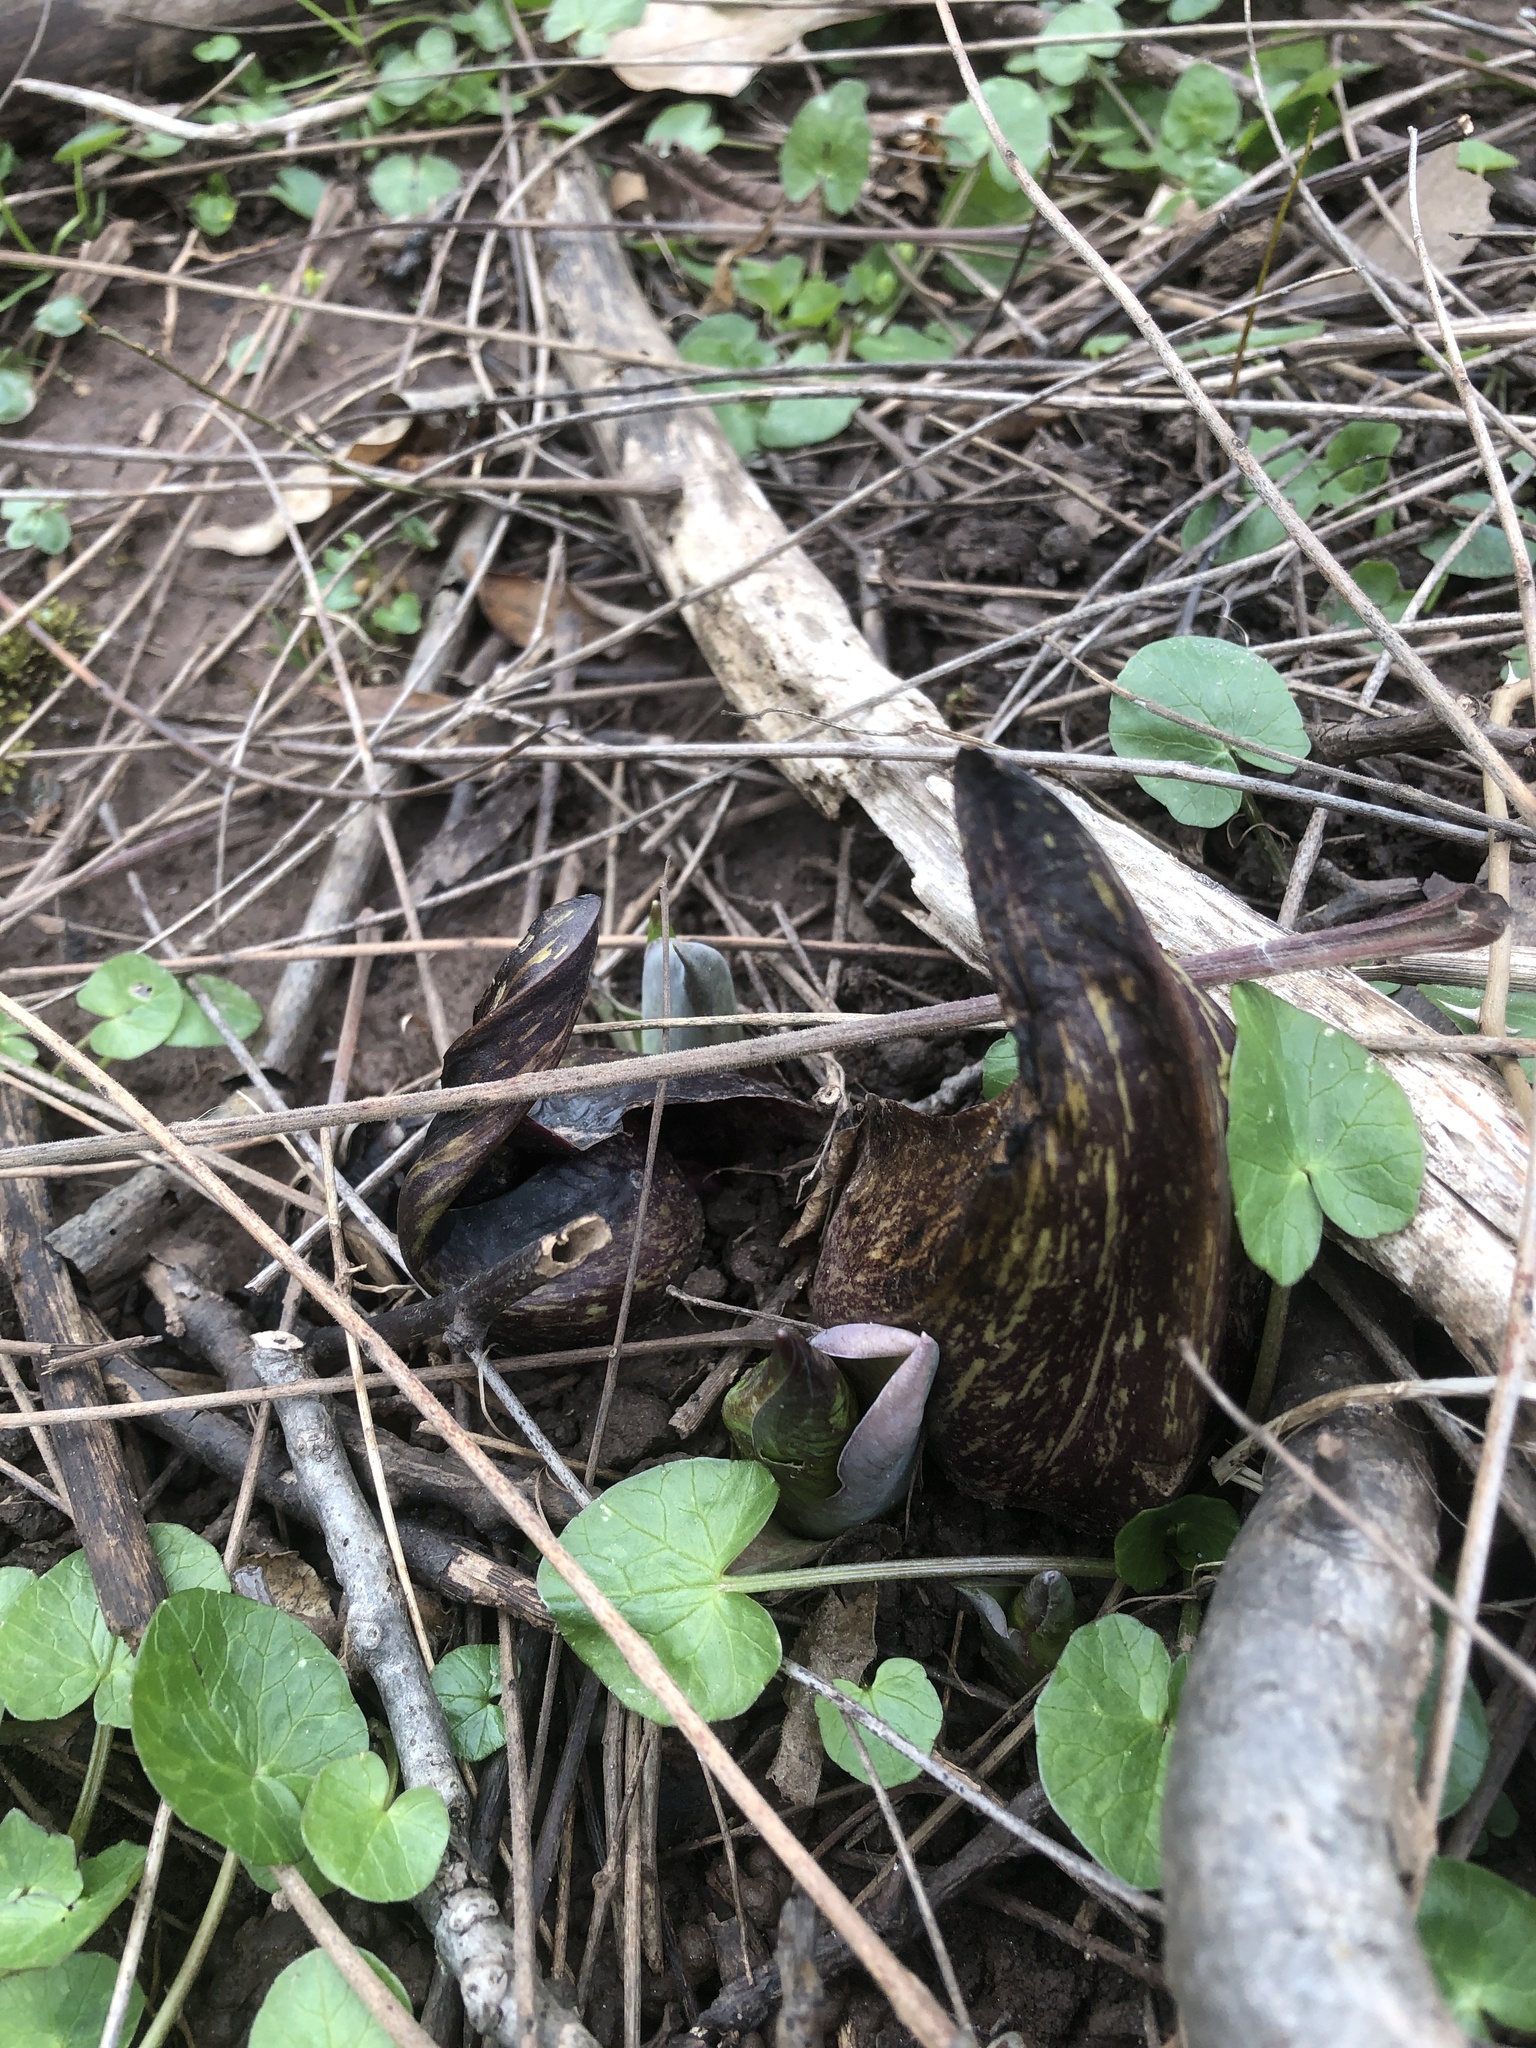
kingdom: Plantae
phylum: Tracheophyta
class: Liliopsida
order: Alismatales
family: Araceae
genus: Symplocarpus
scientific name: Symplocarpus foetidus
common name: Eastern skunk cabbage
